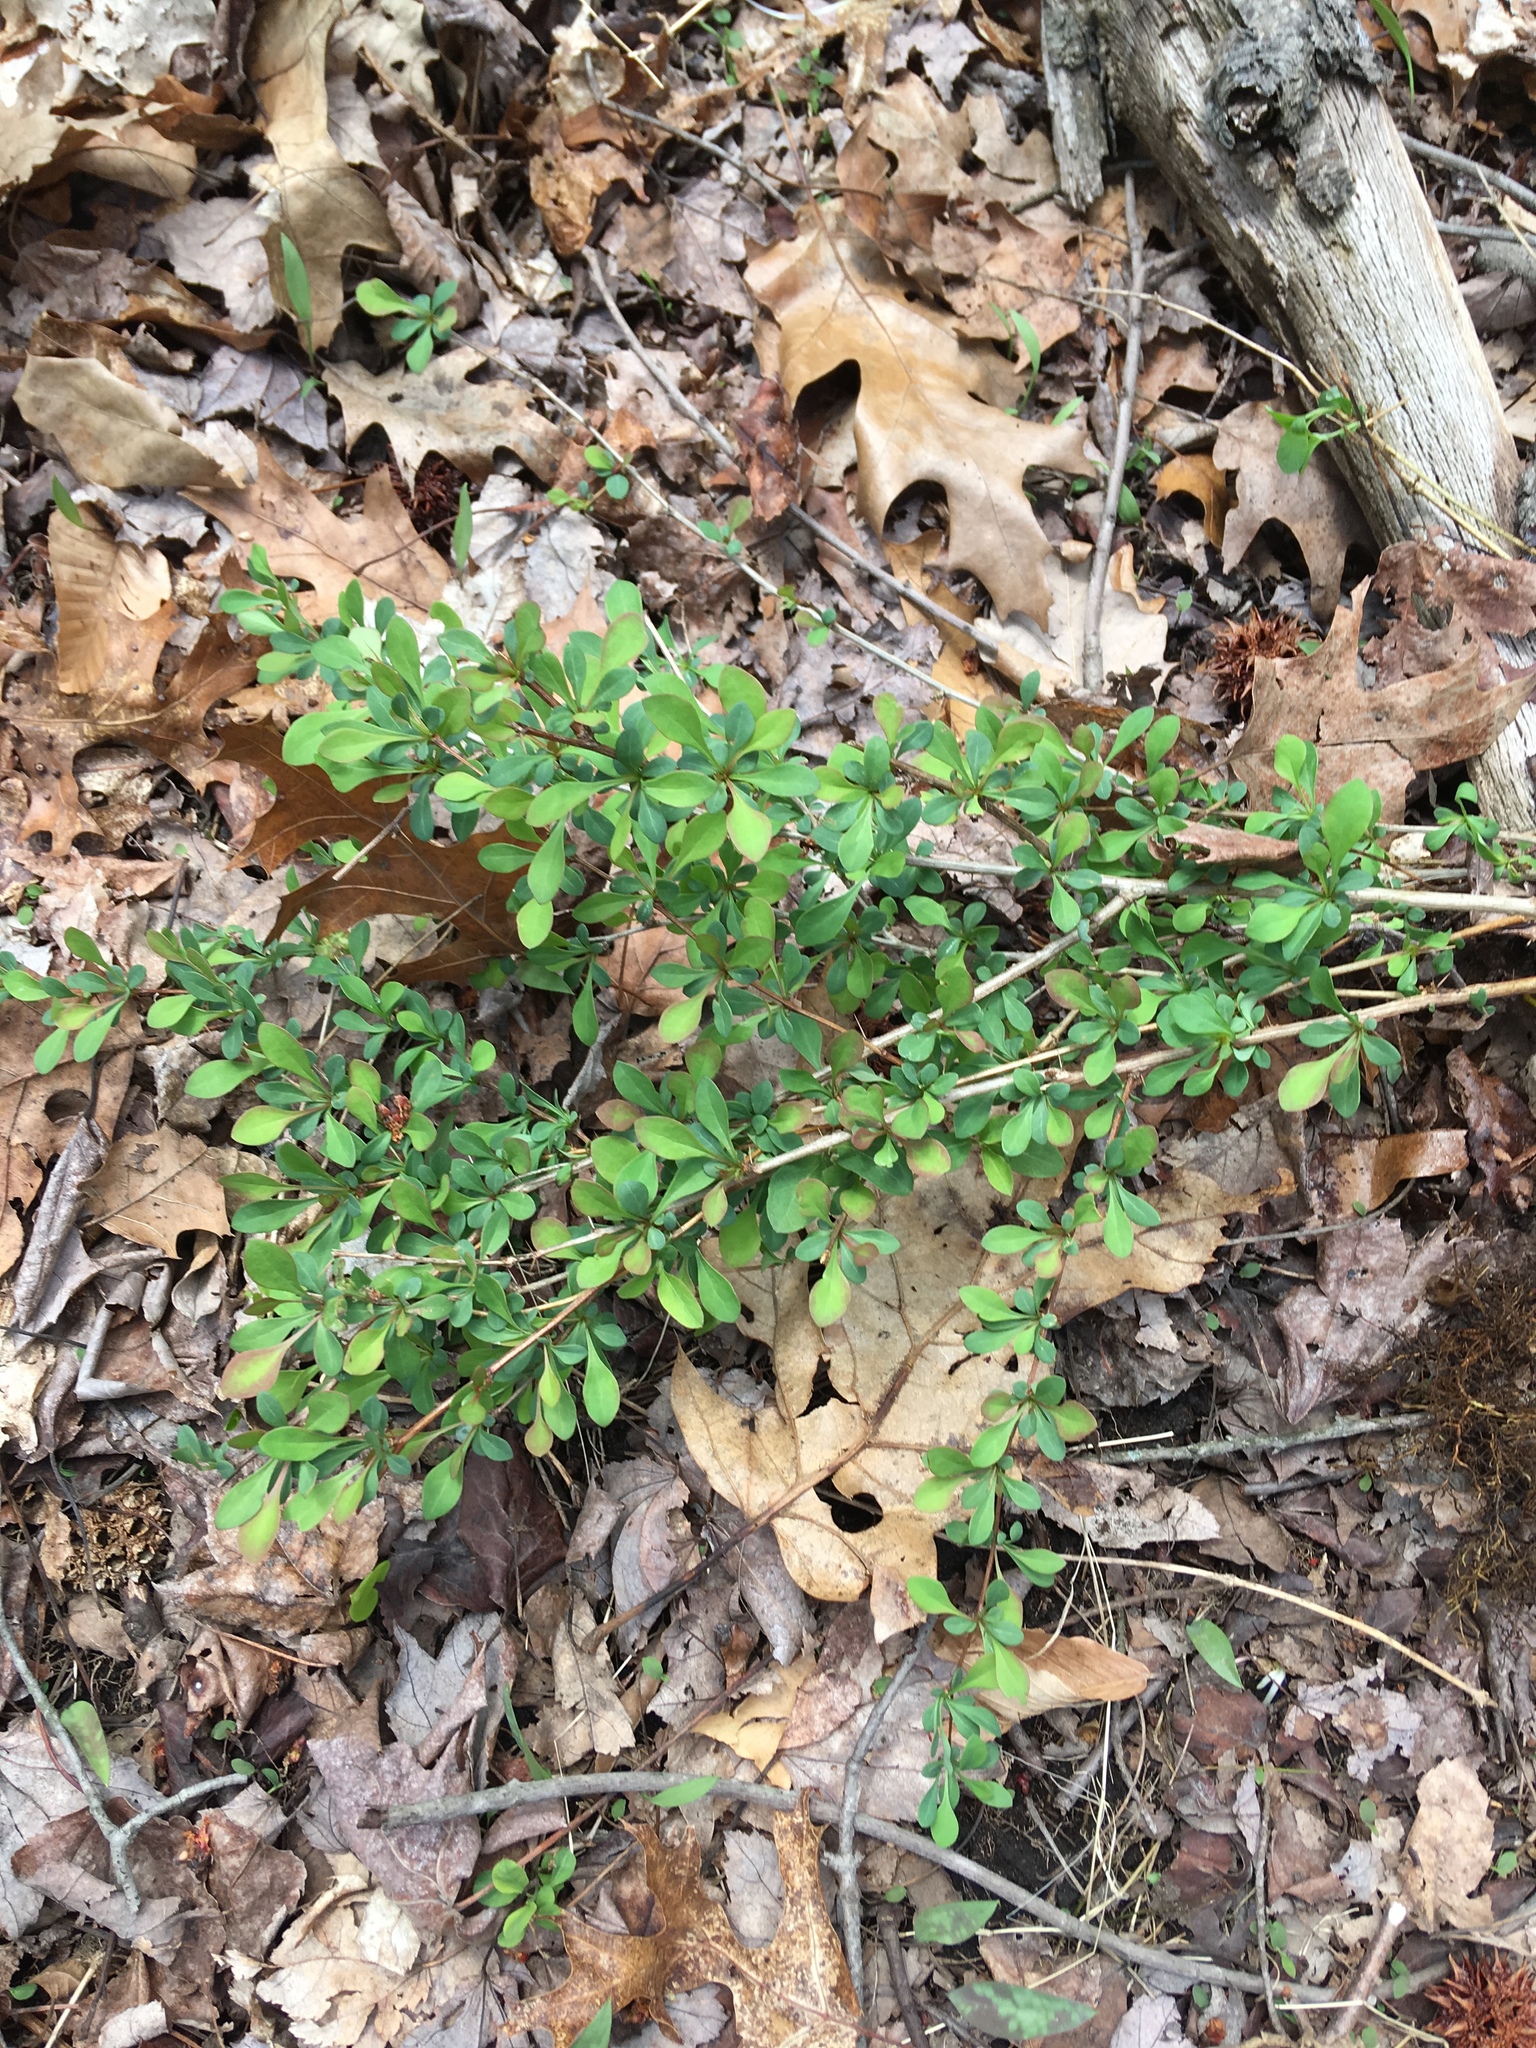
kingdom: Plantae
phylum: Tracheophyta
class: Magnoliopsida
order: Ranunculales
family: Berberidaceae
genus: Berberis
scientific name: Berberis thunbergii
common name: Japanese barberry
